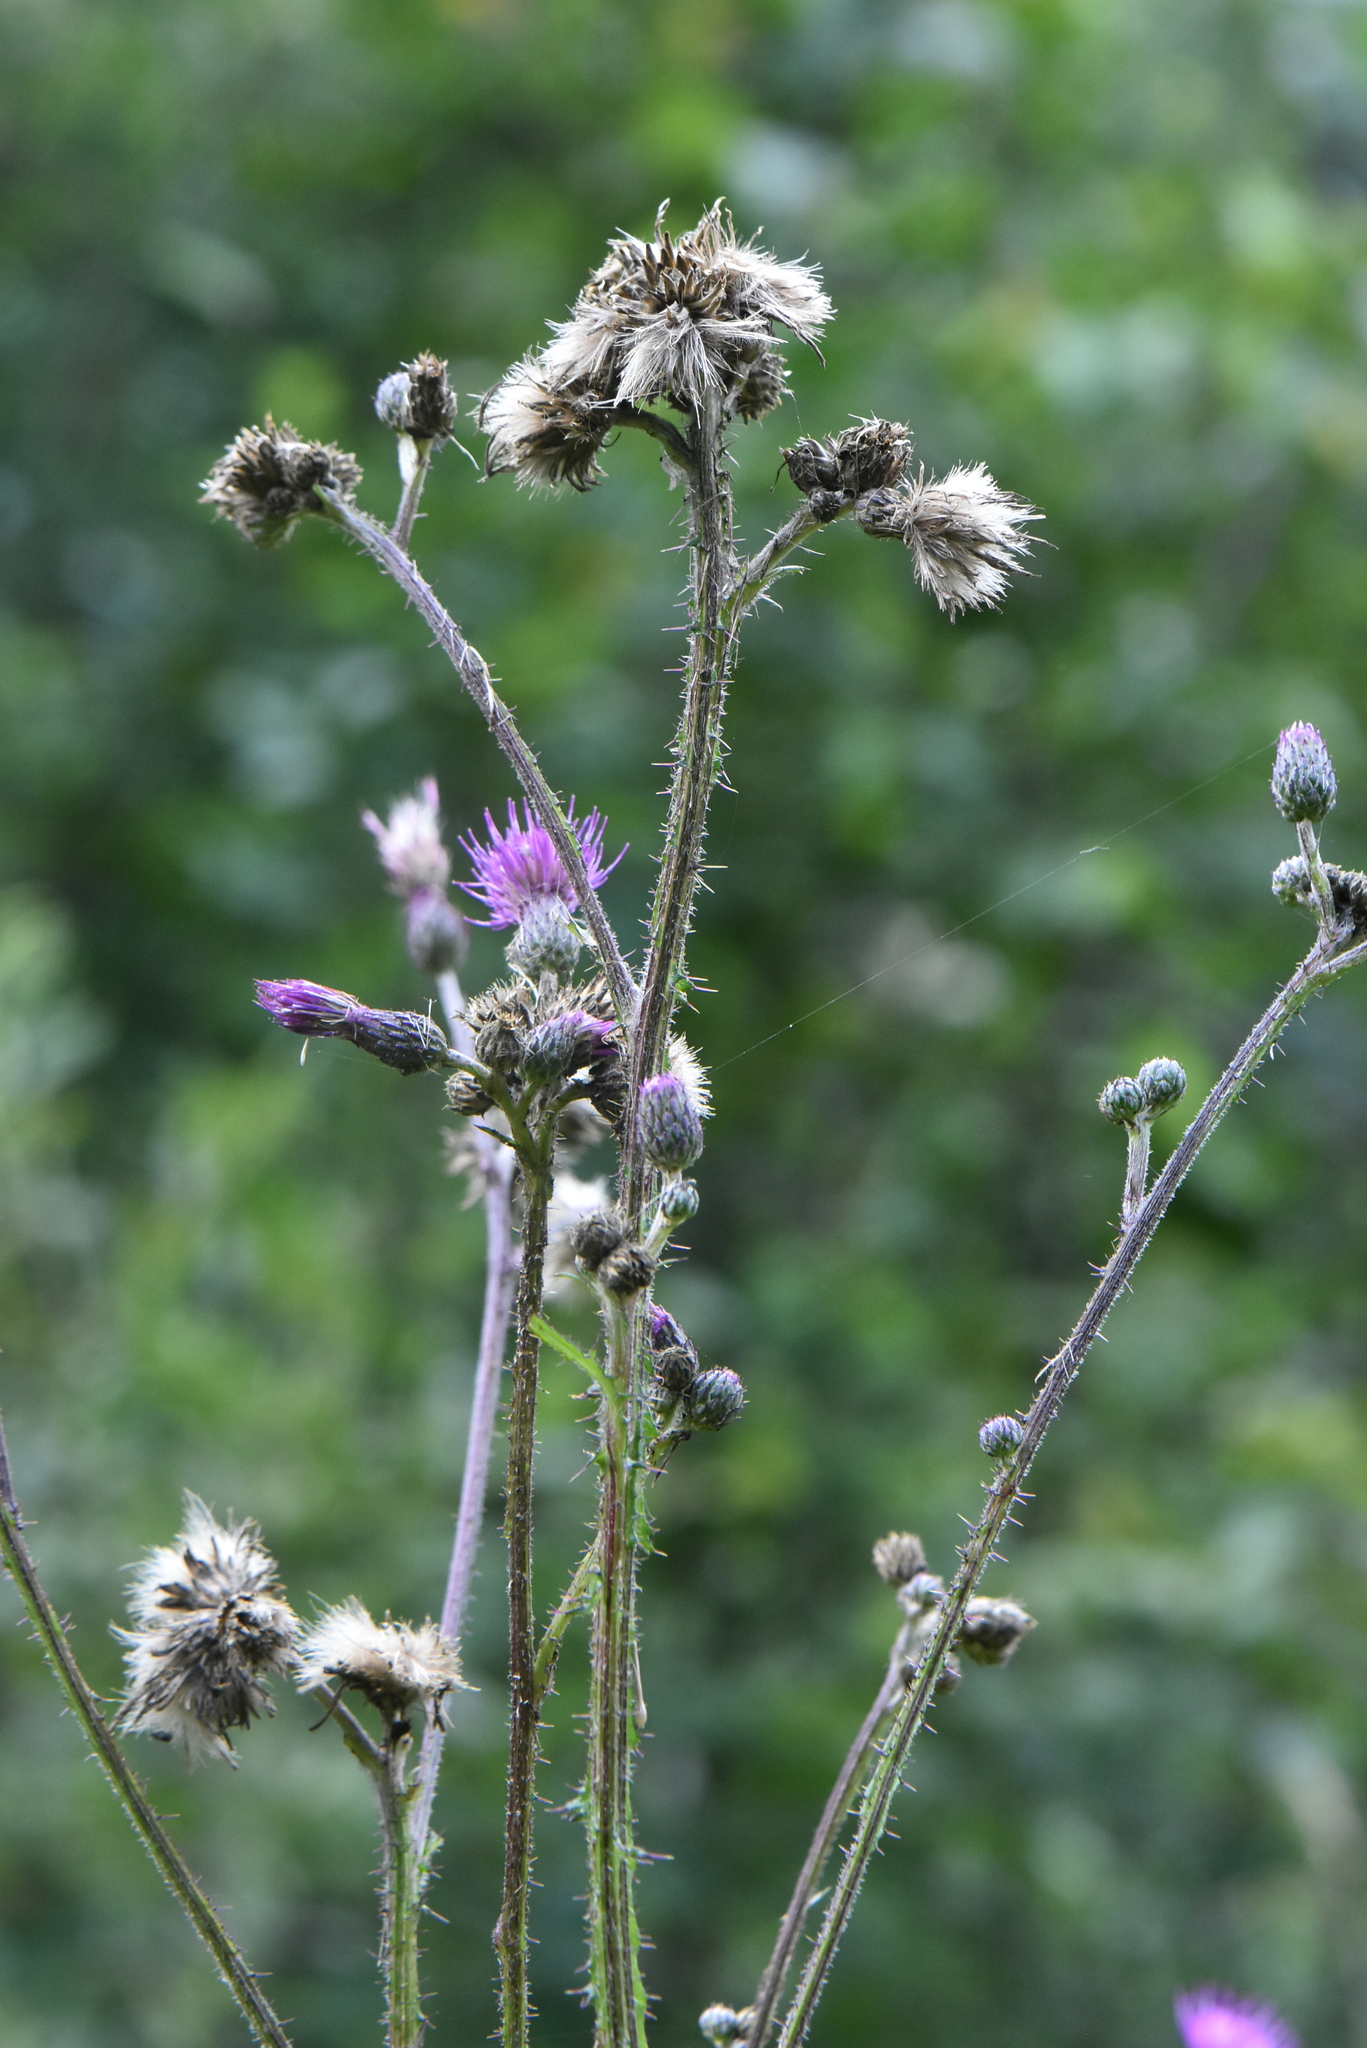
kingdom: Plantae
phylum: Tracheophyta
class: Magnoliopsida
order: Asterales
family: Asteraceae
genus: Cirsium
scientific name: Cirsium palustre
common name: Marsh thistle
